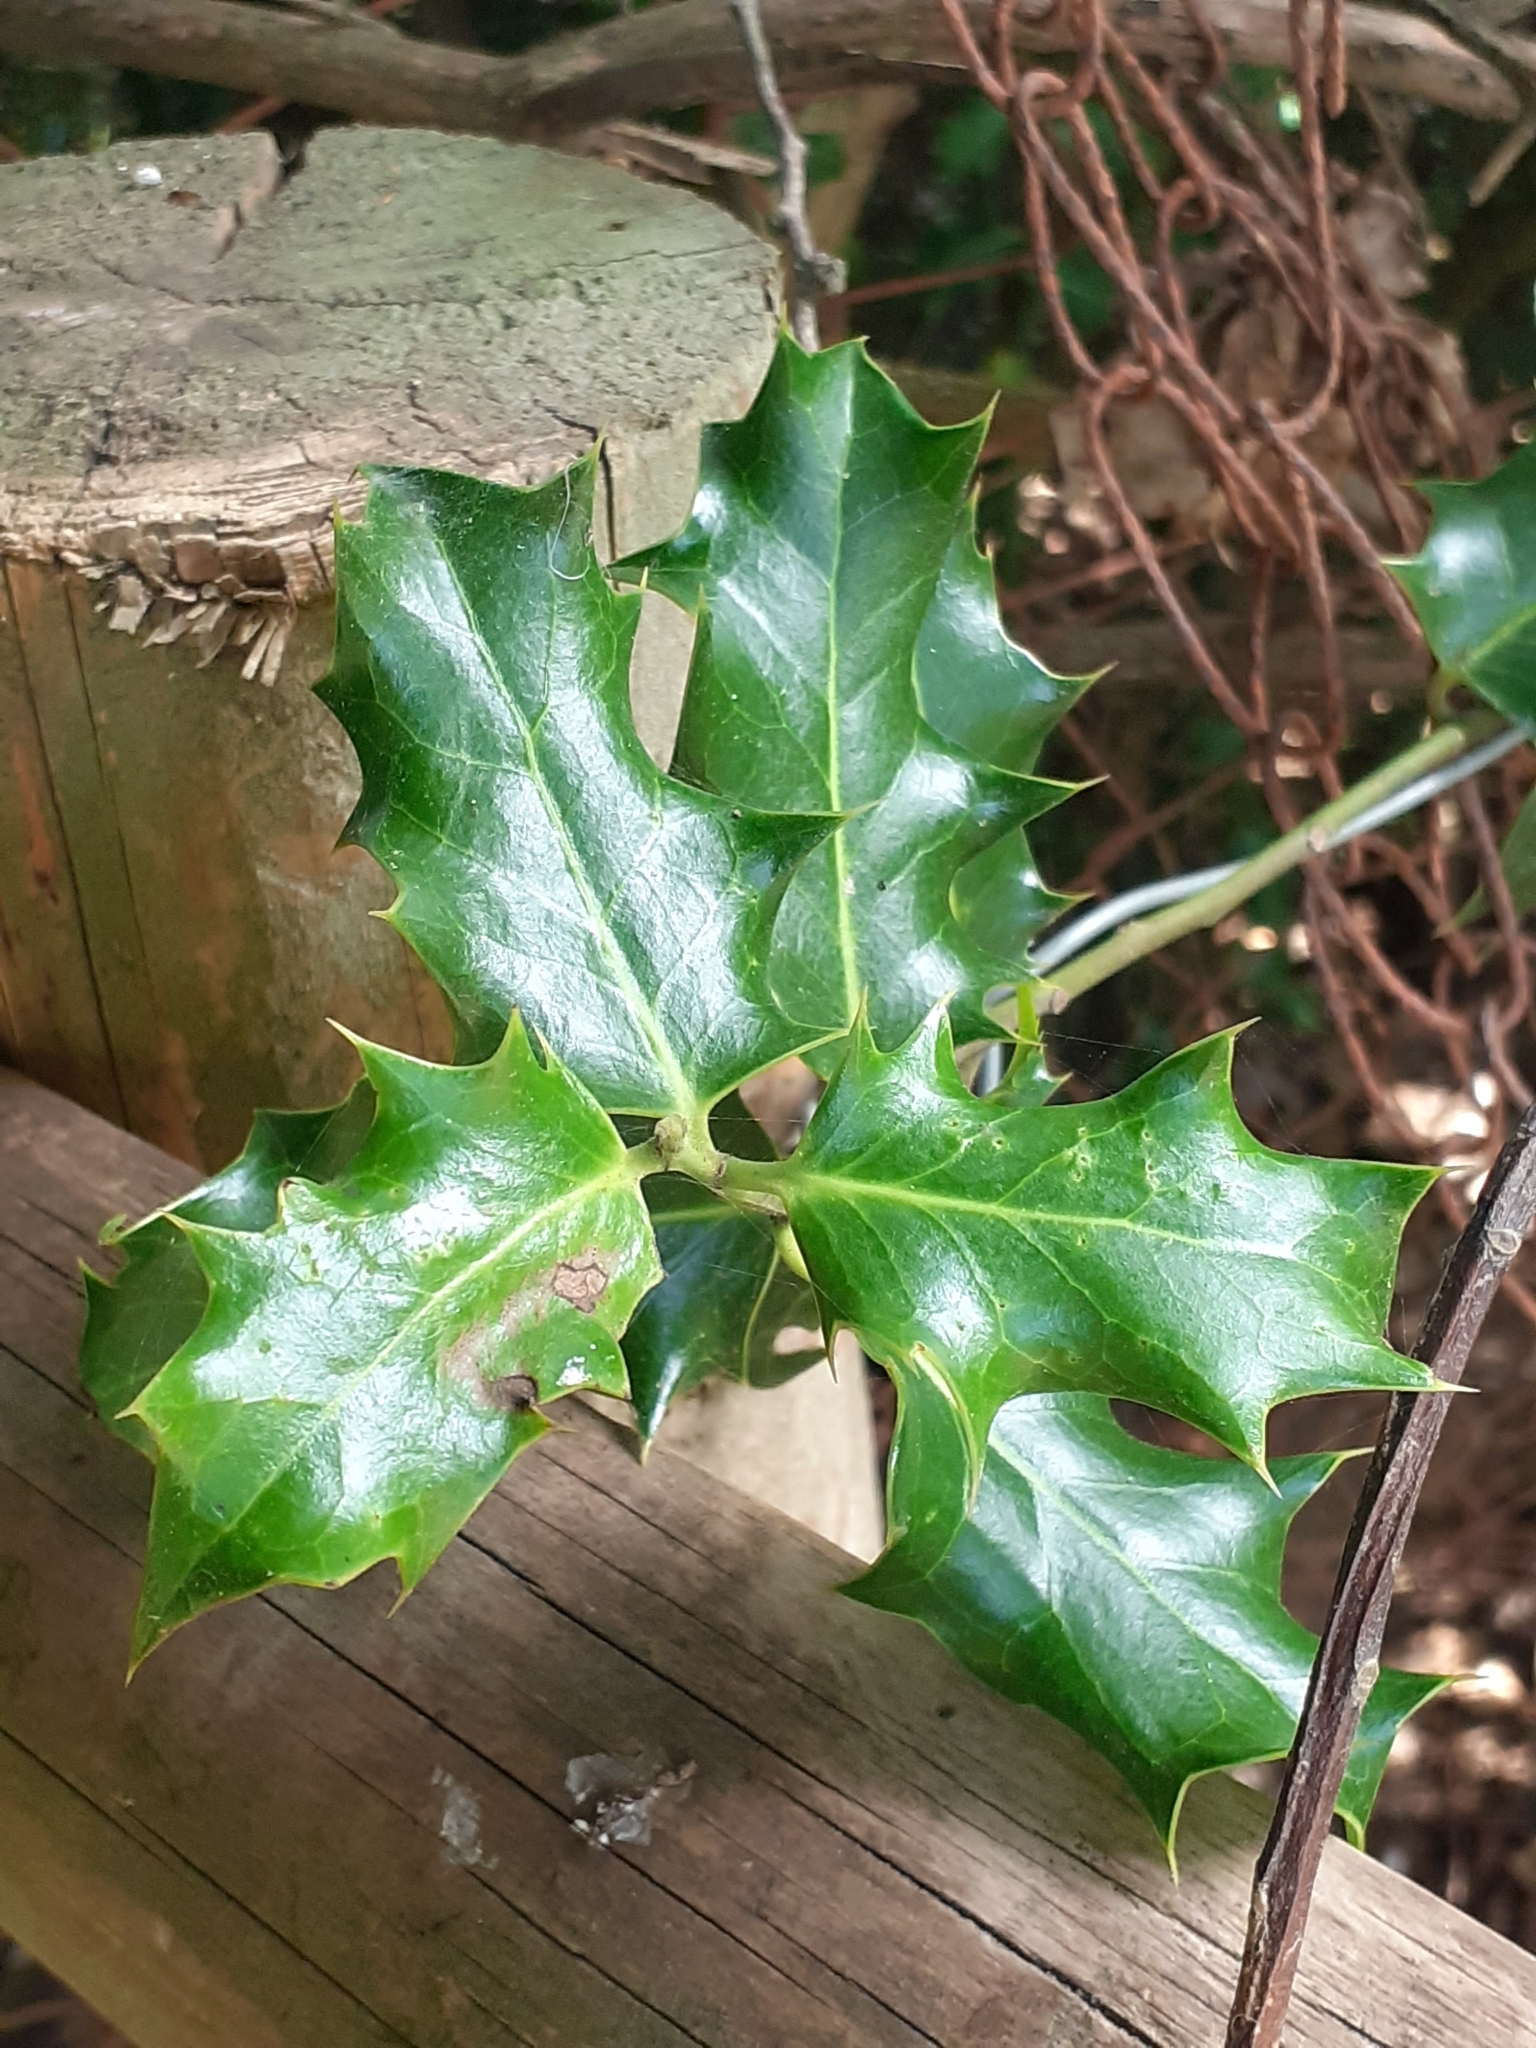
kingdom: Plantae
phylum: Tracheophyta
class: Magnoliopsida
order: Aquifoliales
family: Aquifoliaceae
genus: Ilex
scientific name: Ilex aquifolium
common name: English holly
